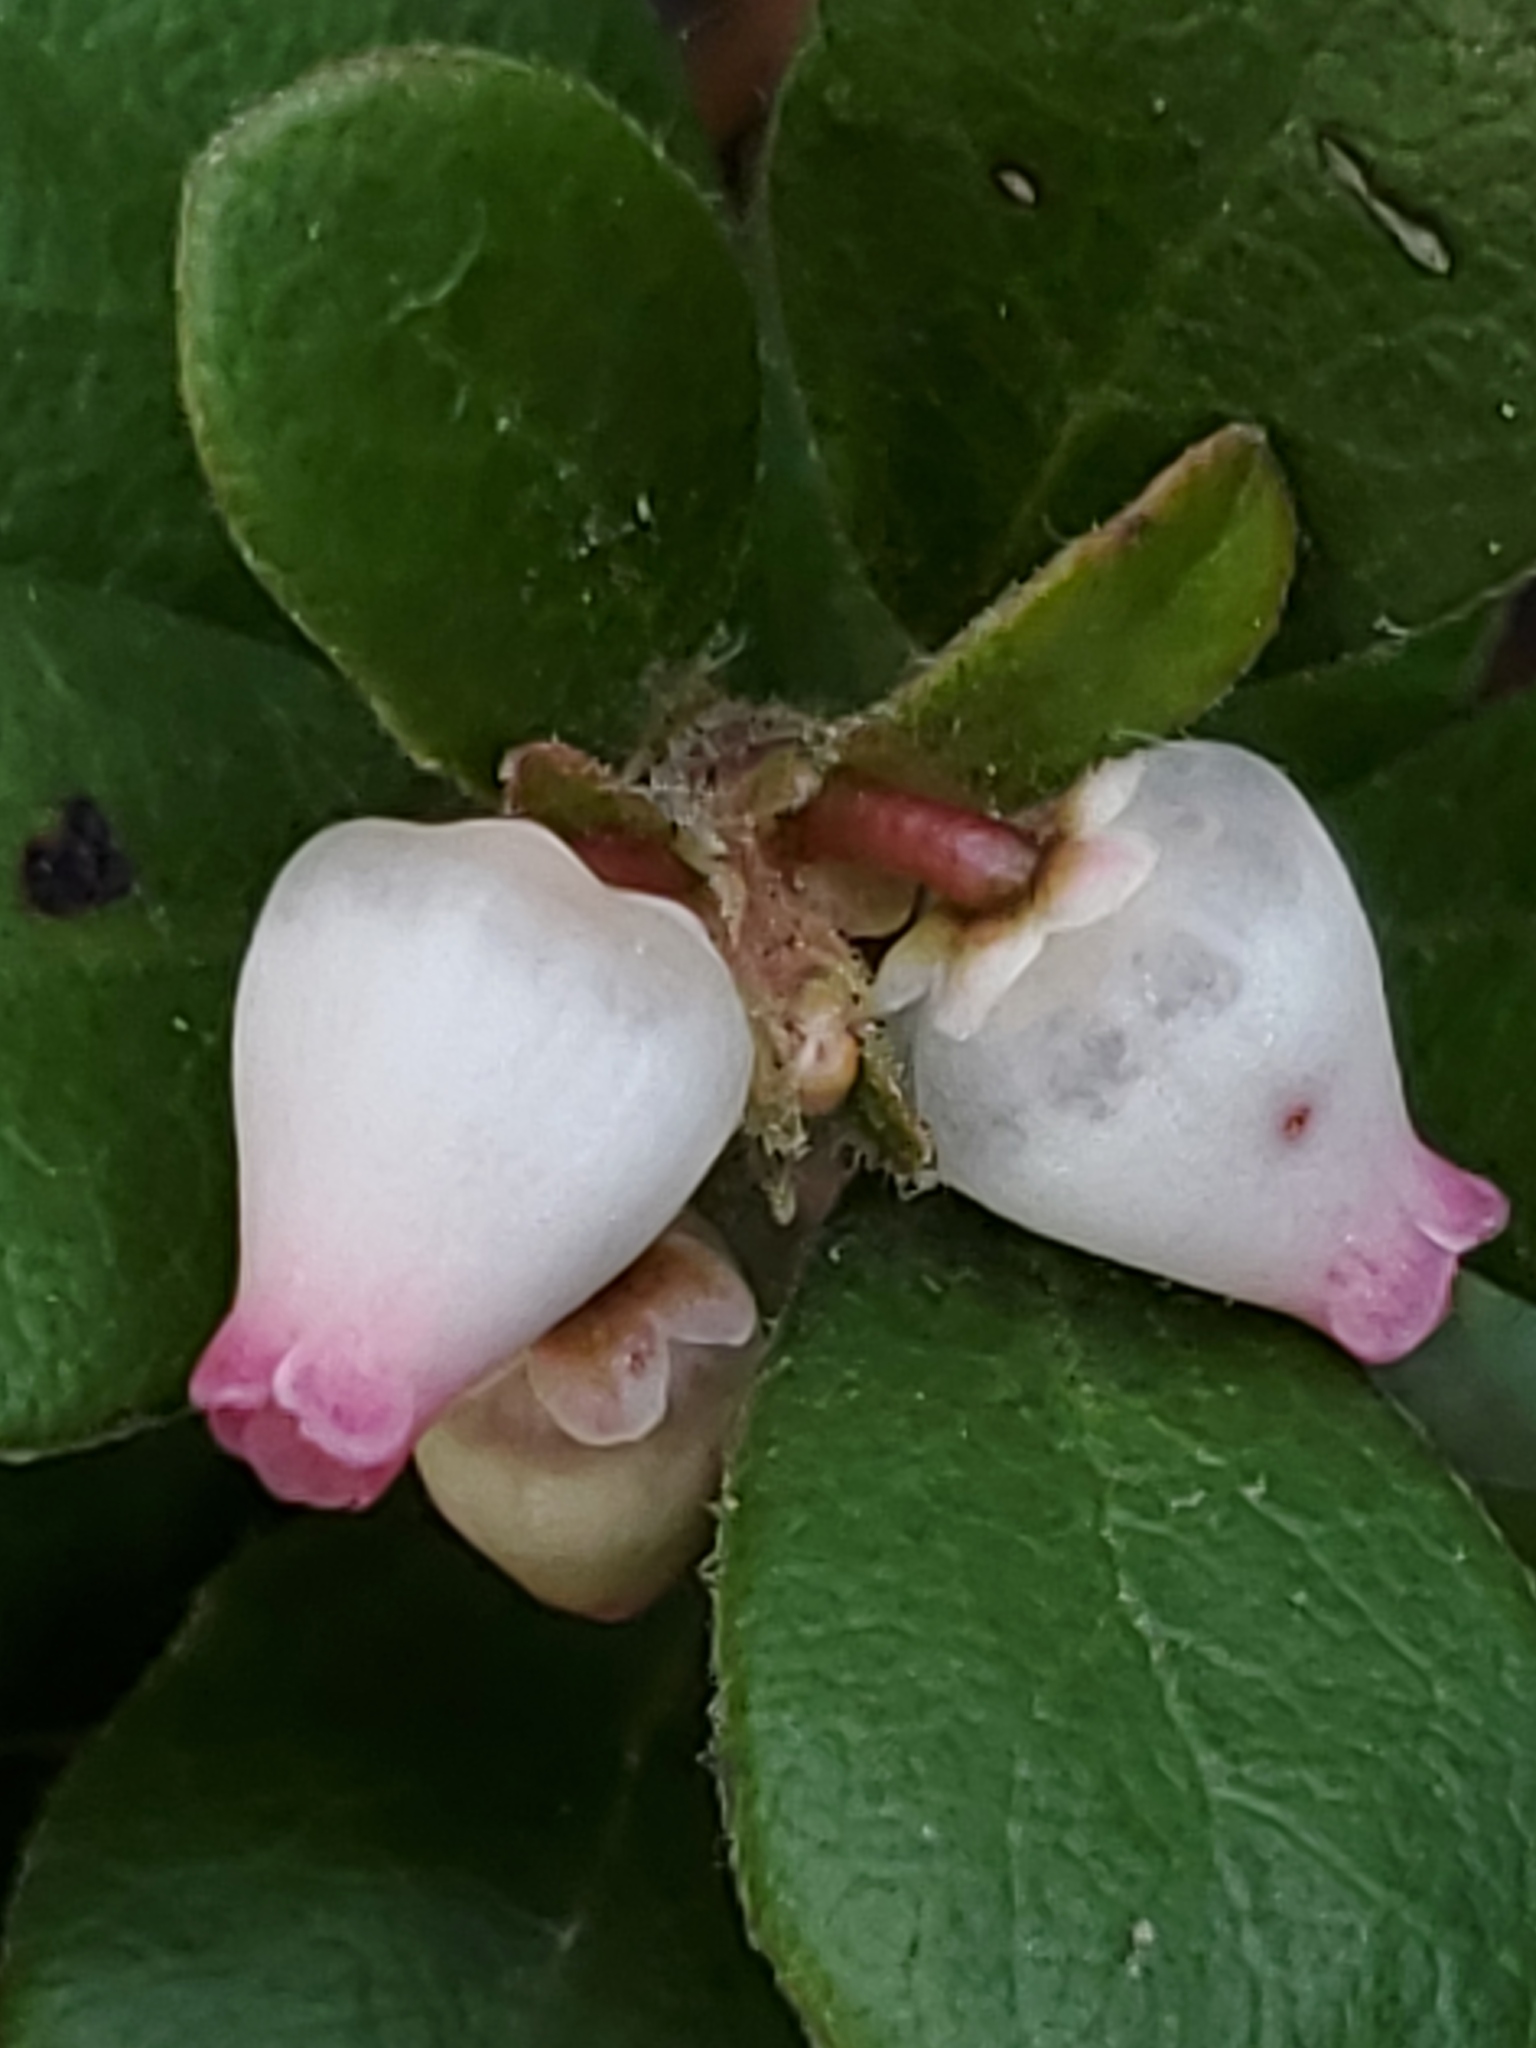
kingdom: Plantae
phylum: Tracheophyta
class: Magnoliopsida
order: Ericales
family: Ericaceae
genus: Arctostaphylos
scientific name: Arctostaphylos uva-ursi
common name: Bearberry
